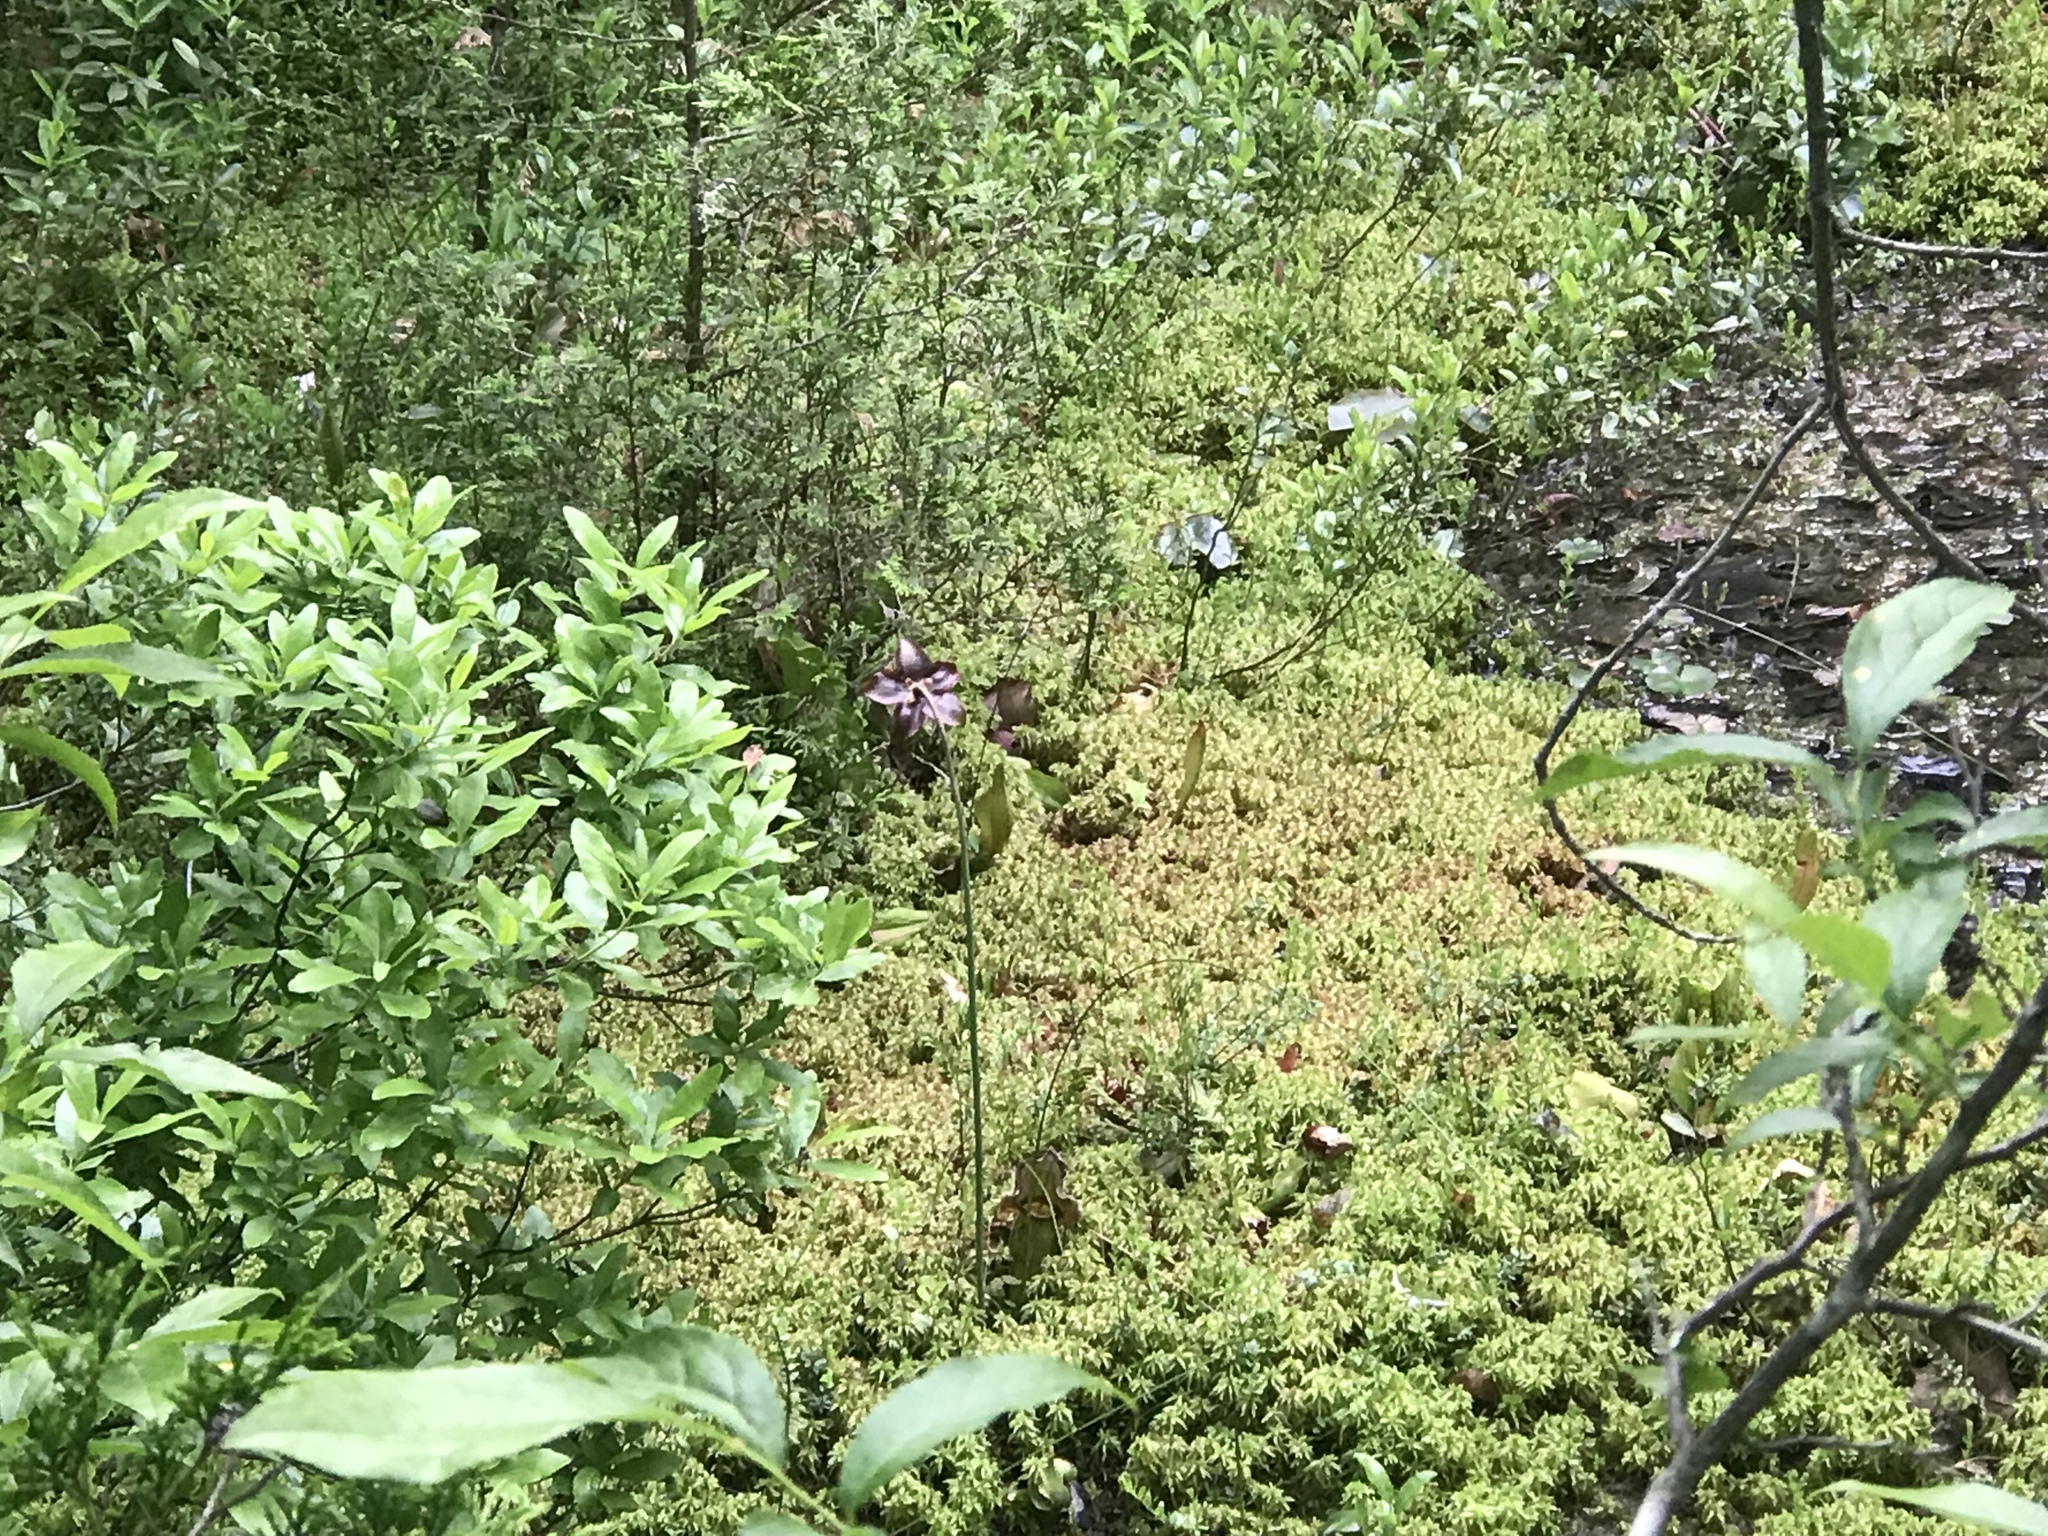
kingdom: Plantae
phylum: Tracheophyta
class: Magnoliopsida
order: Ericales
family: Sarraceniaceae
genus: Sarracenia
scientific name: Sarracenia purpurea
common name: Pitcherplant
